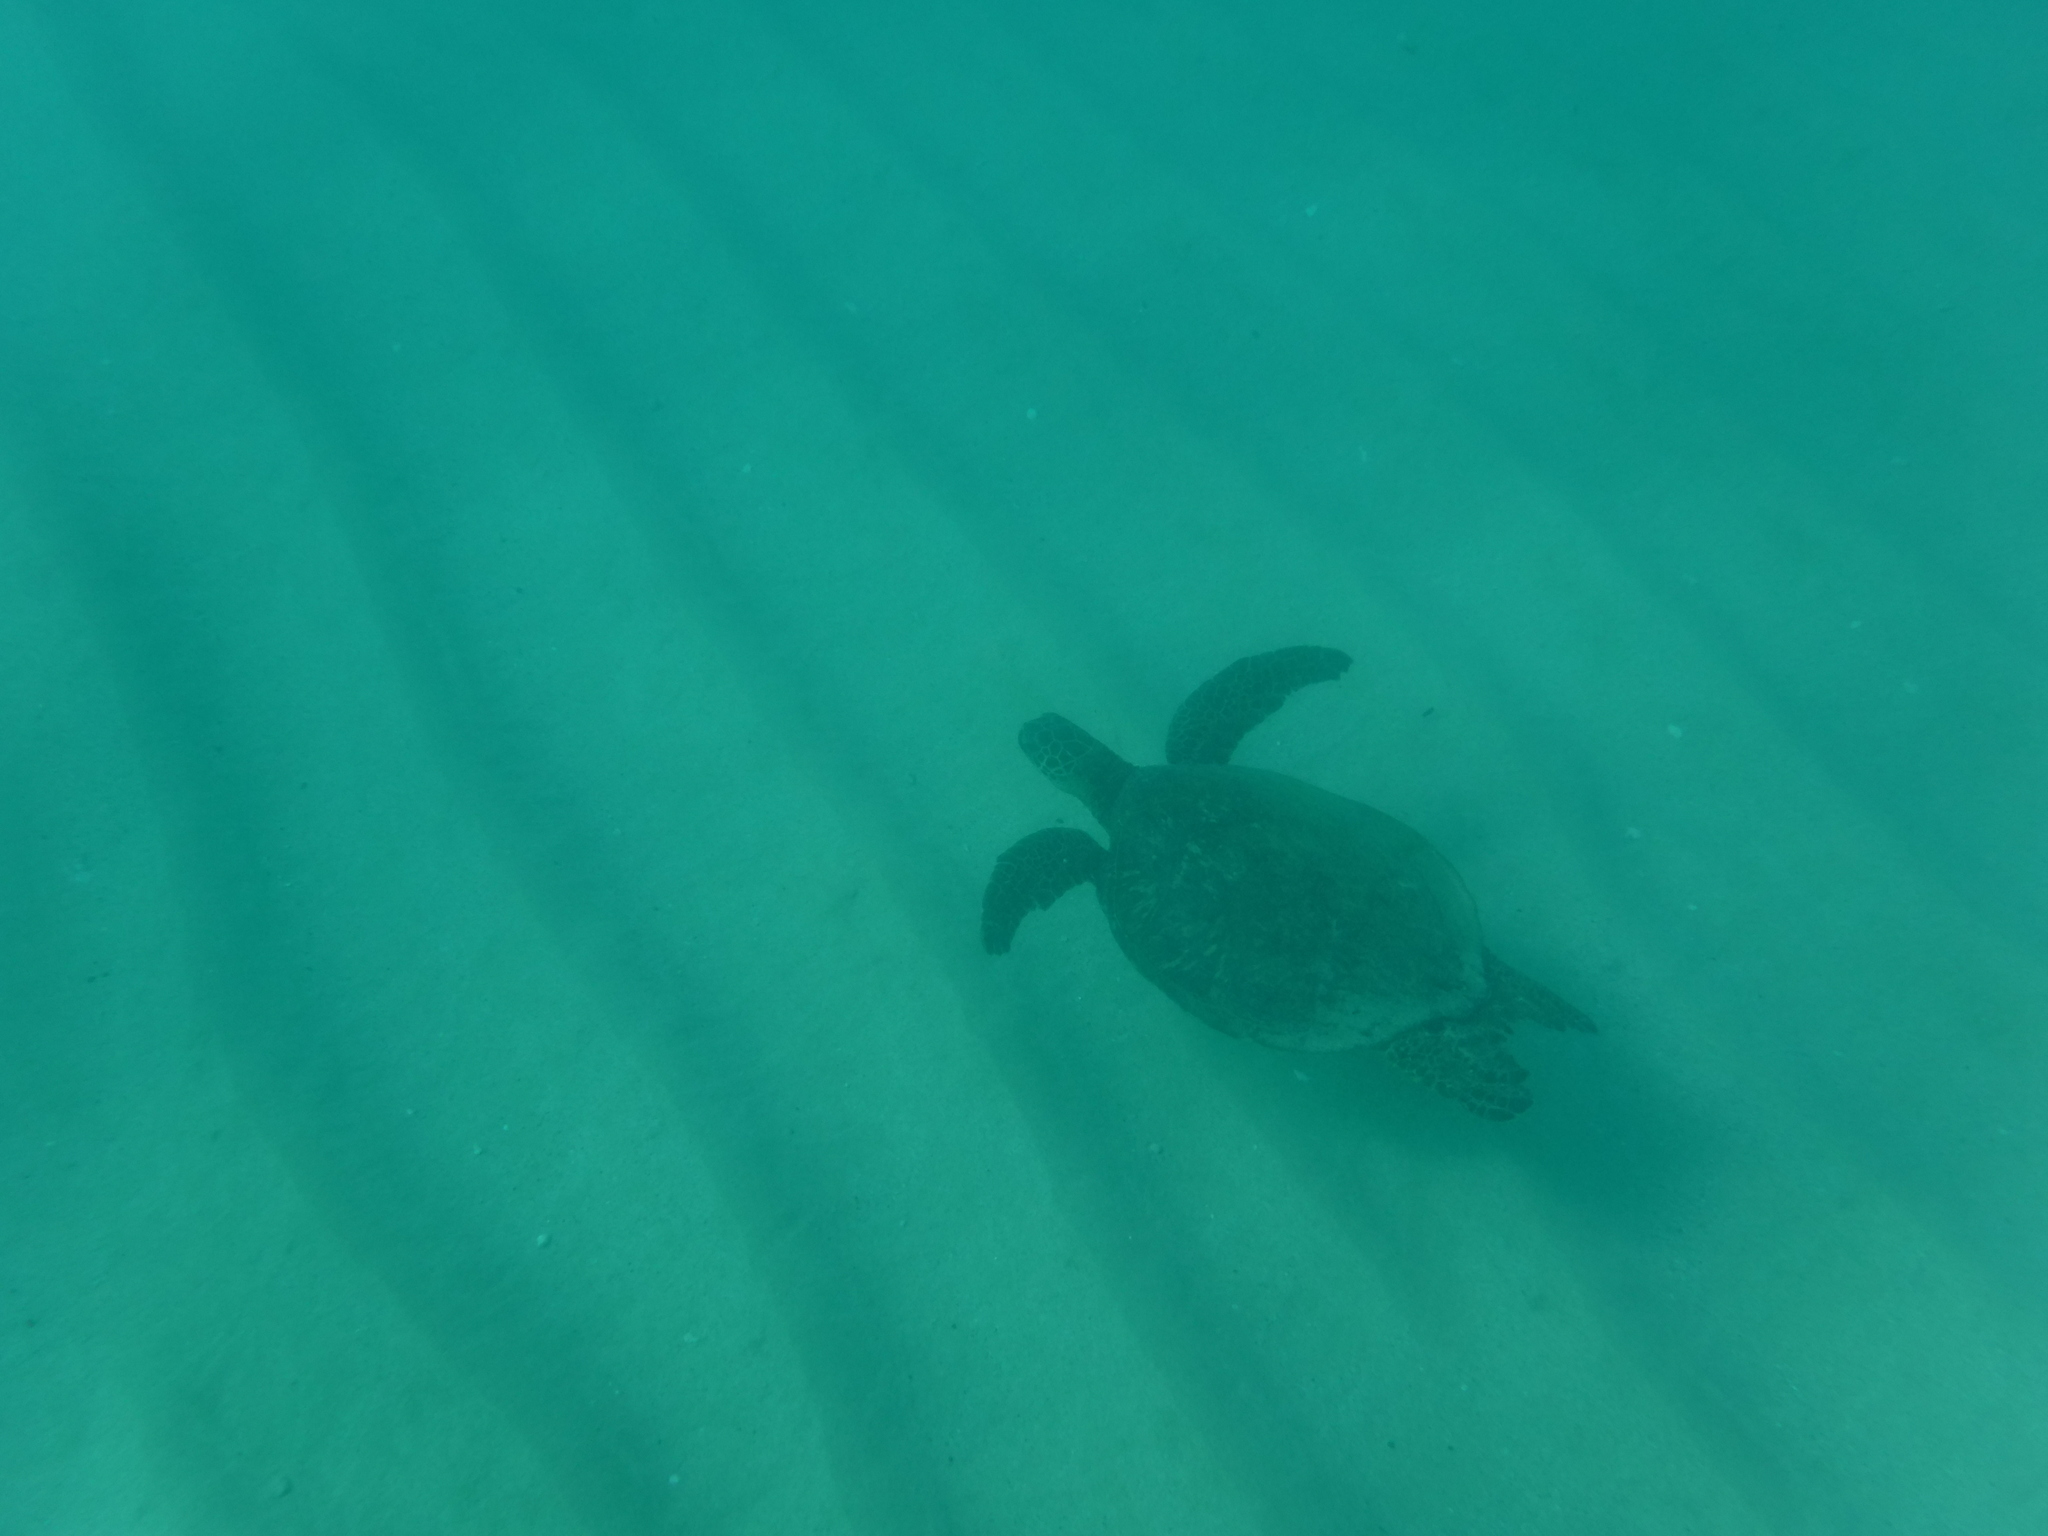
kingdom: Animalia
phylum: Chordata
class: Testudines
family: Cheloniidae
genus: Chelonia
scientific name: Chelonia mydas
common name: Green turtle
